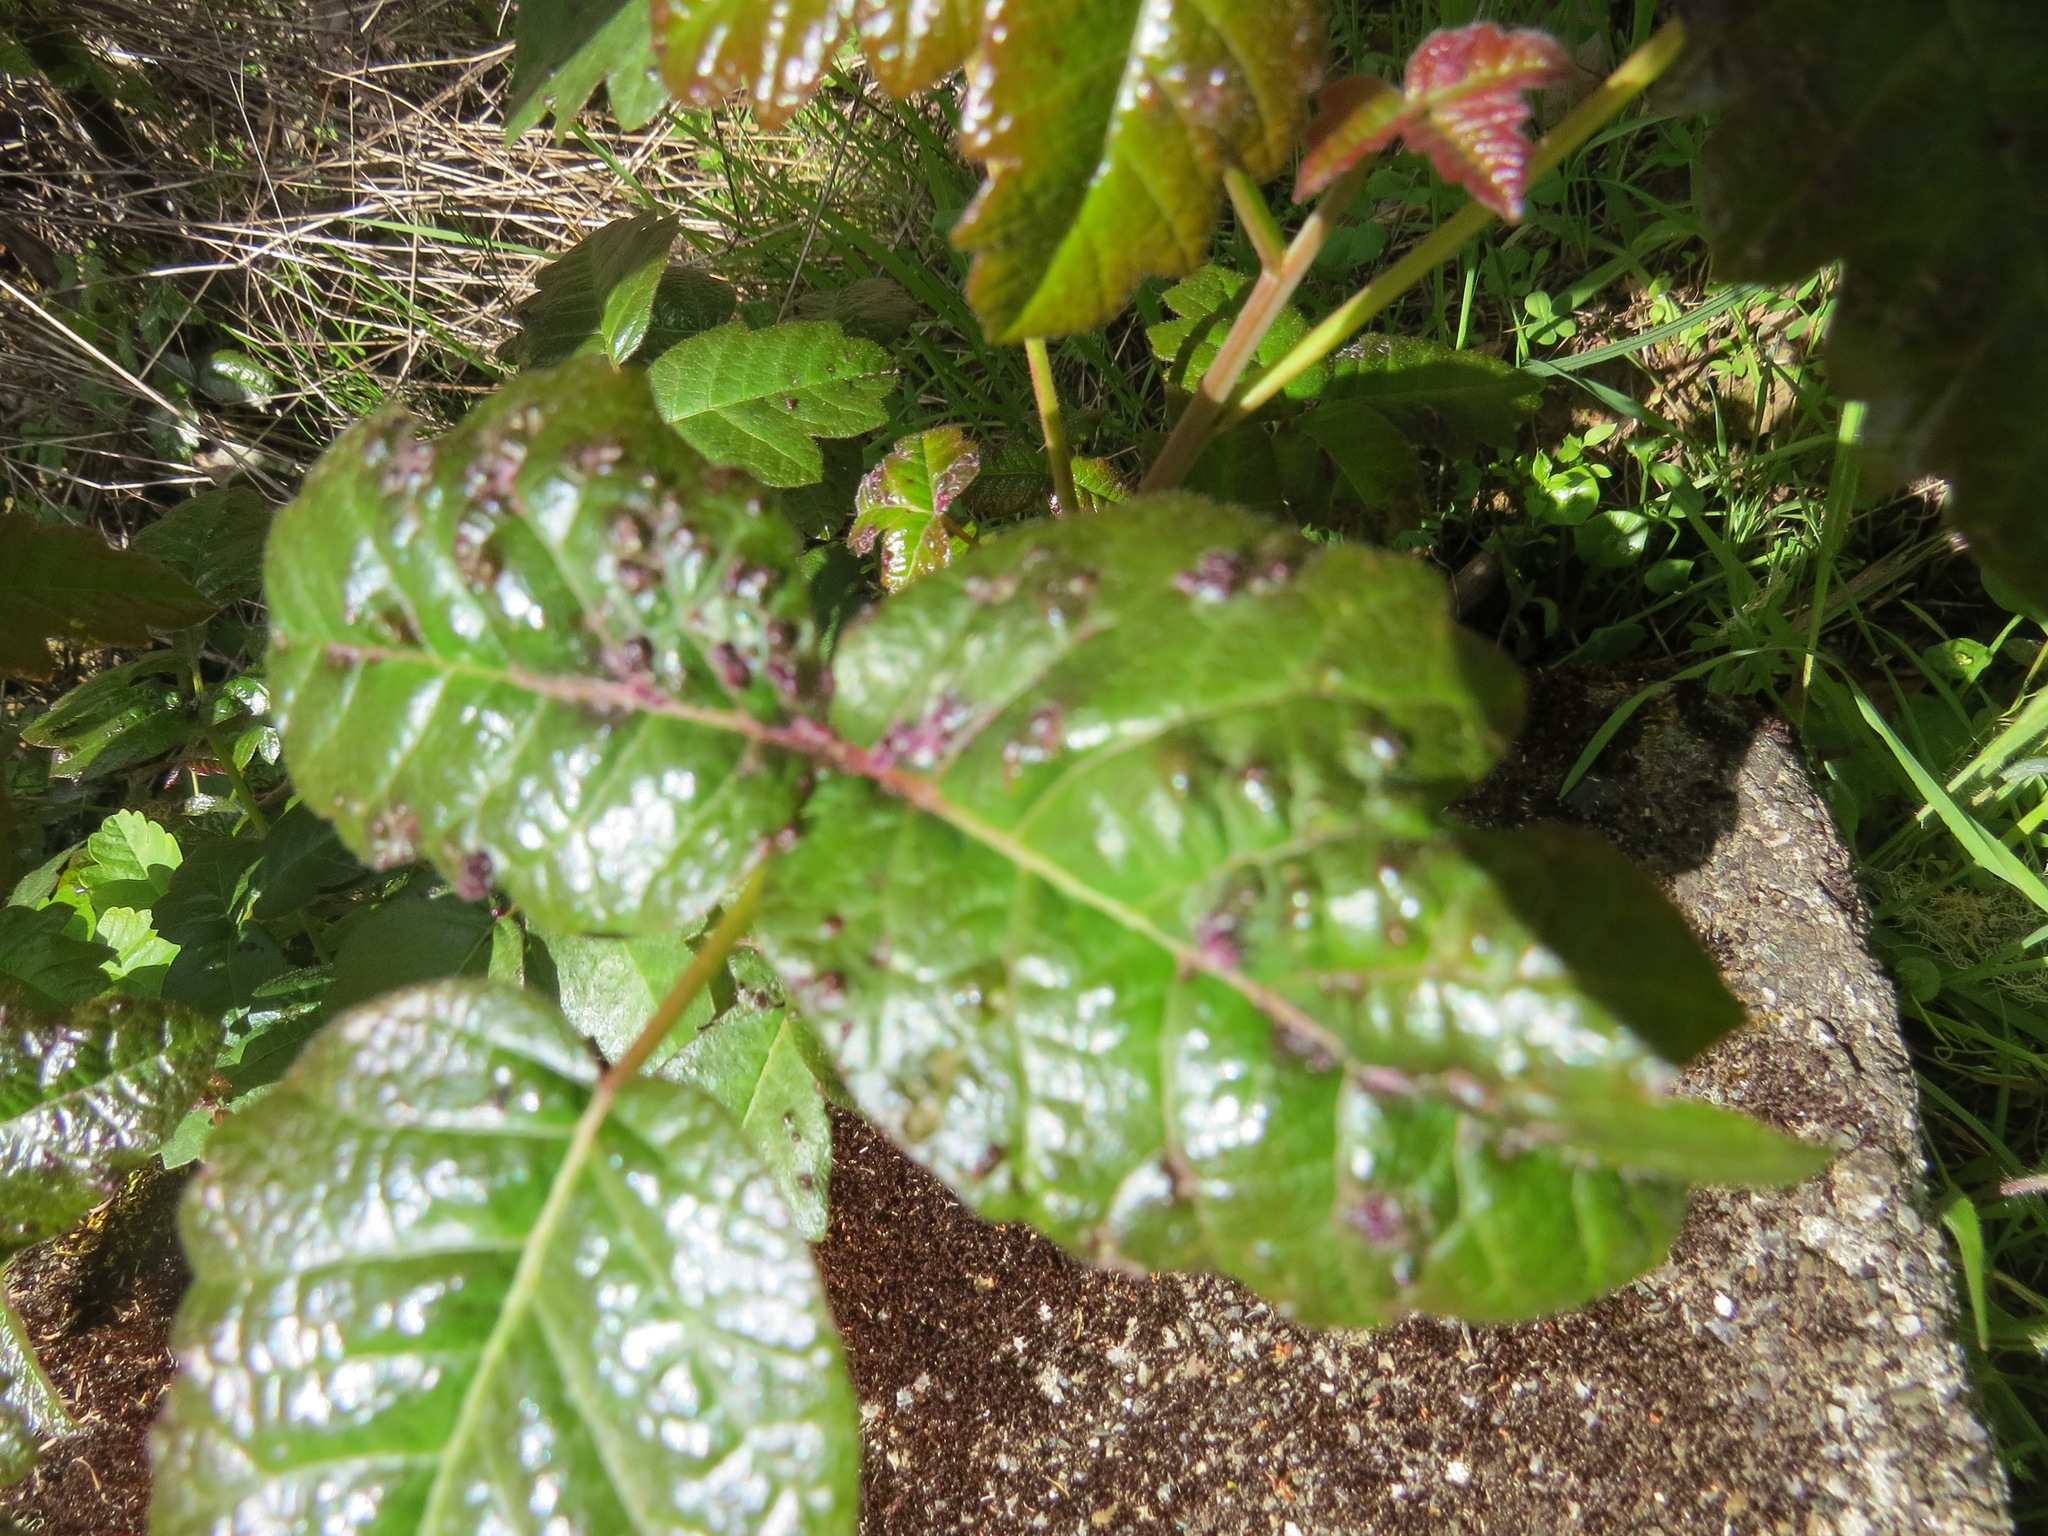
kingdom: Animalia
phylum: Arthropoda
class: Arachnida
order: Trombidiformes
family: Eriophyidae
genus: Aculops
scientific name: Aculops
